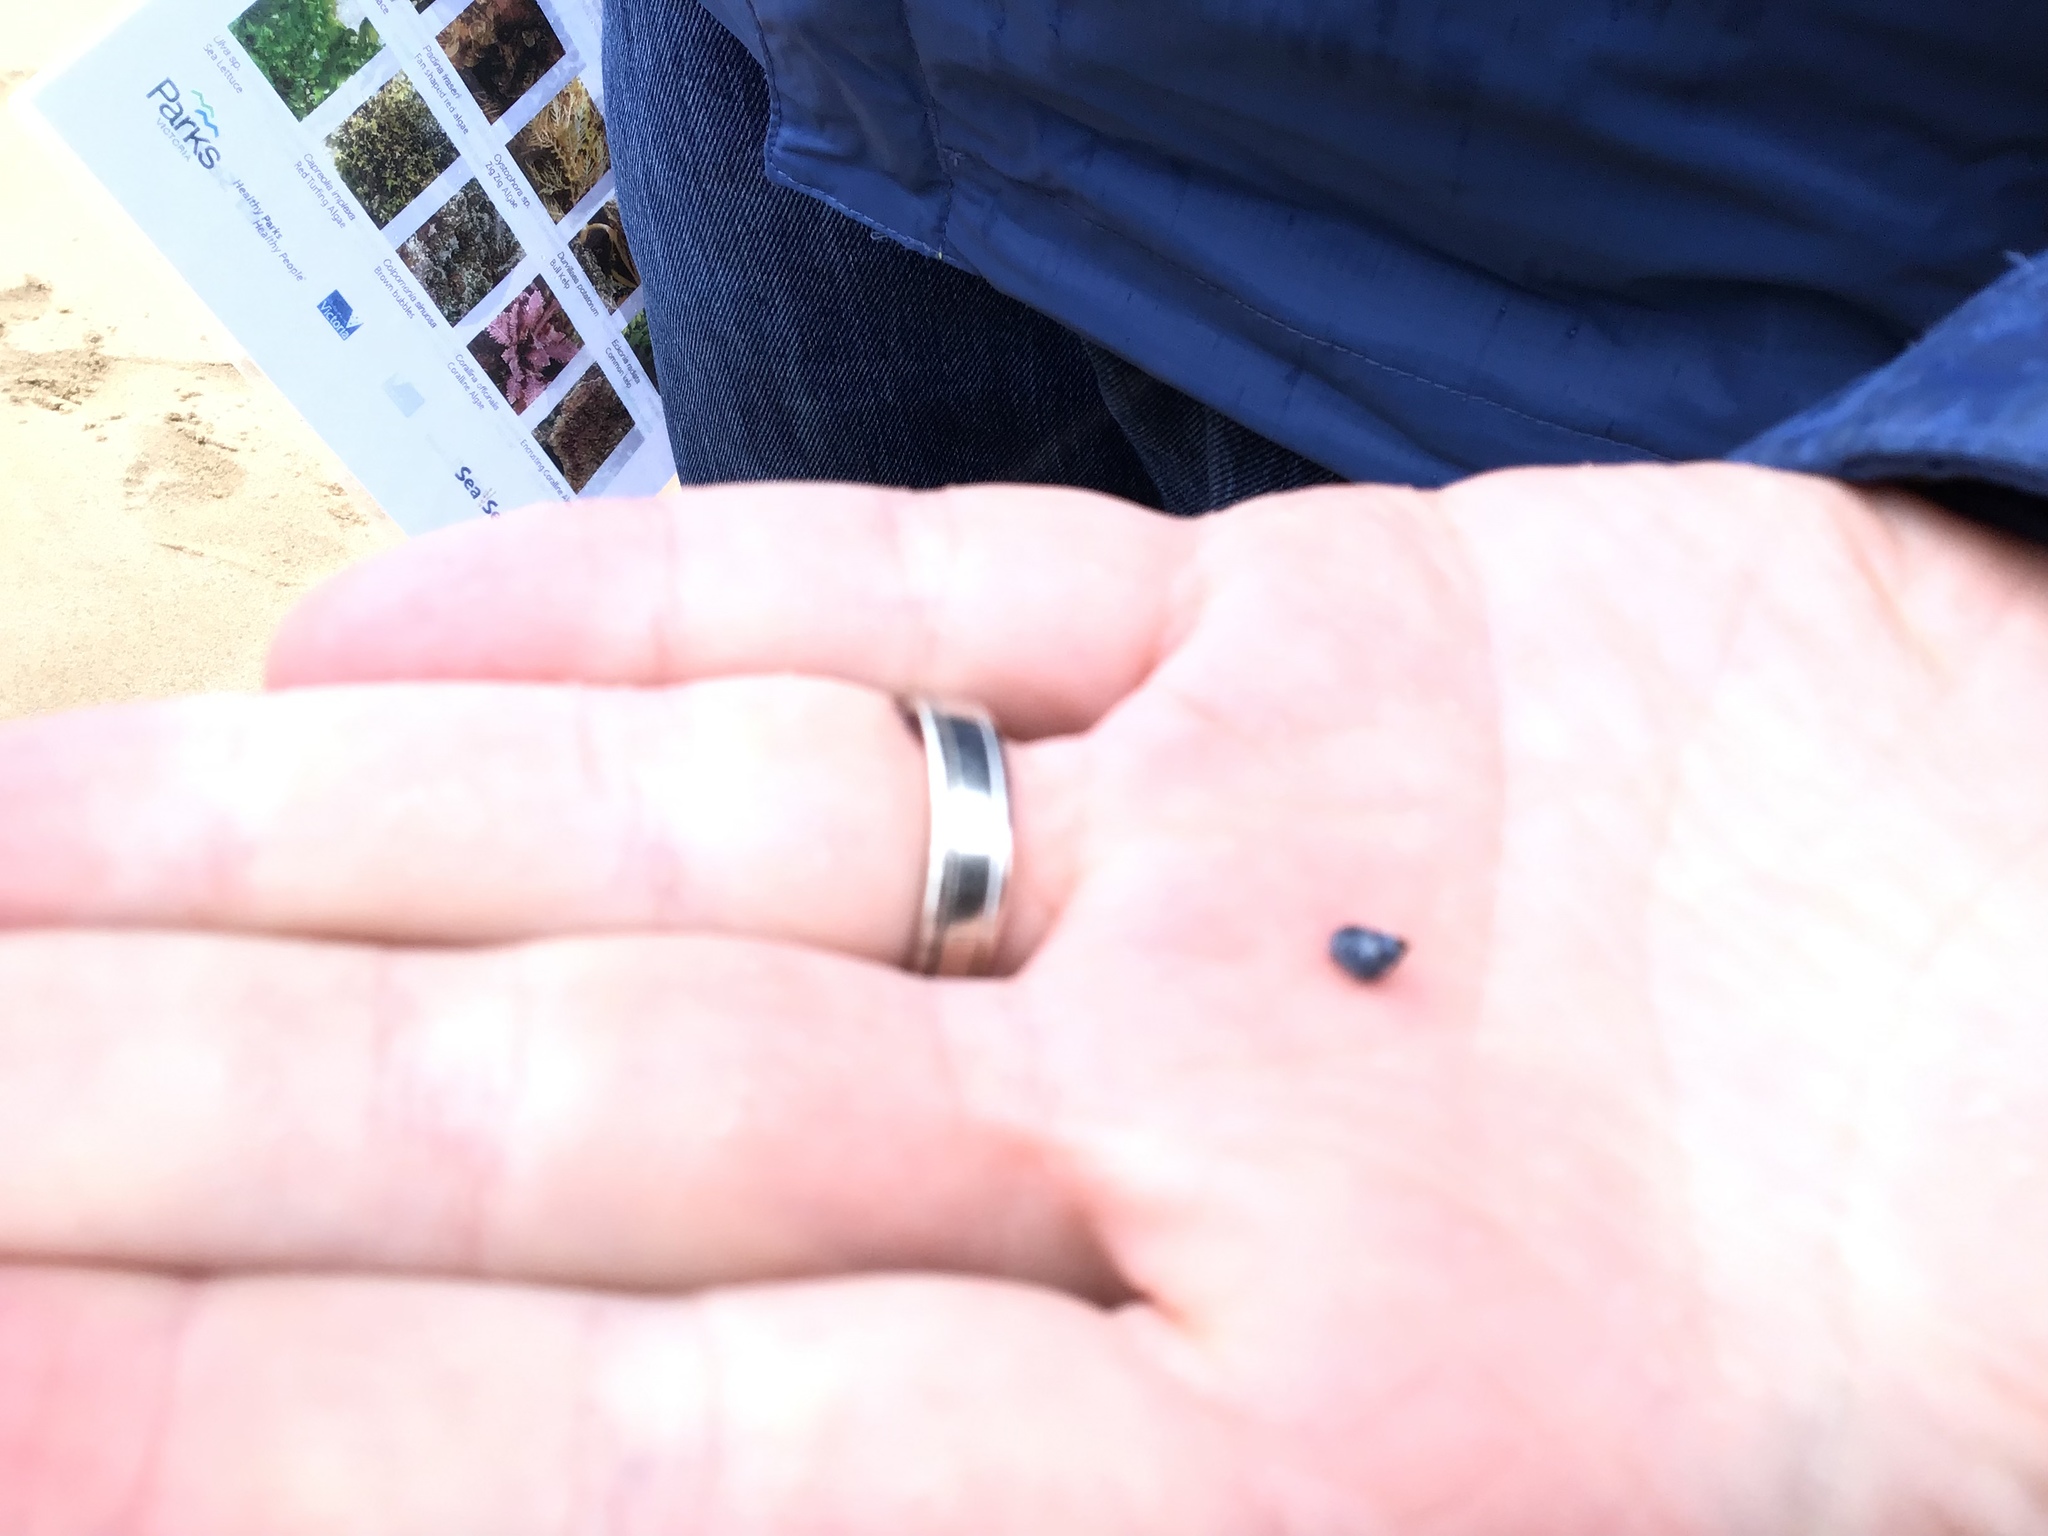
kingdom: Animalia
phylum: Mollusca
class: Gastropoda
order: Littorinimorpha
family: Littorinidae
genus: Austrolittorina
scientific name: Austrolittorina unifasciata
